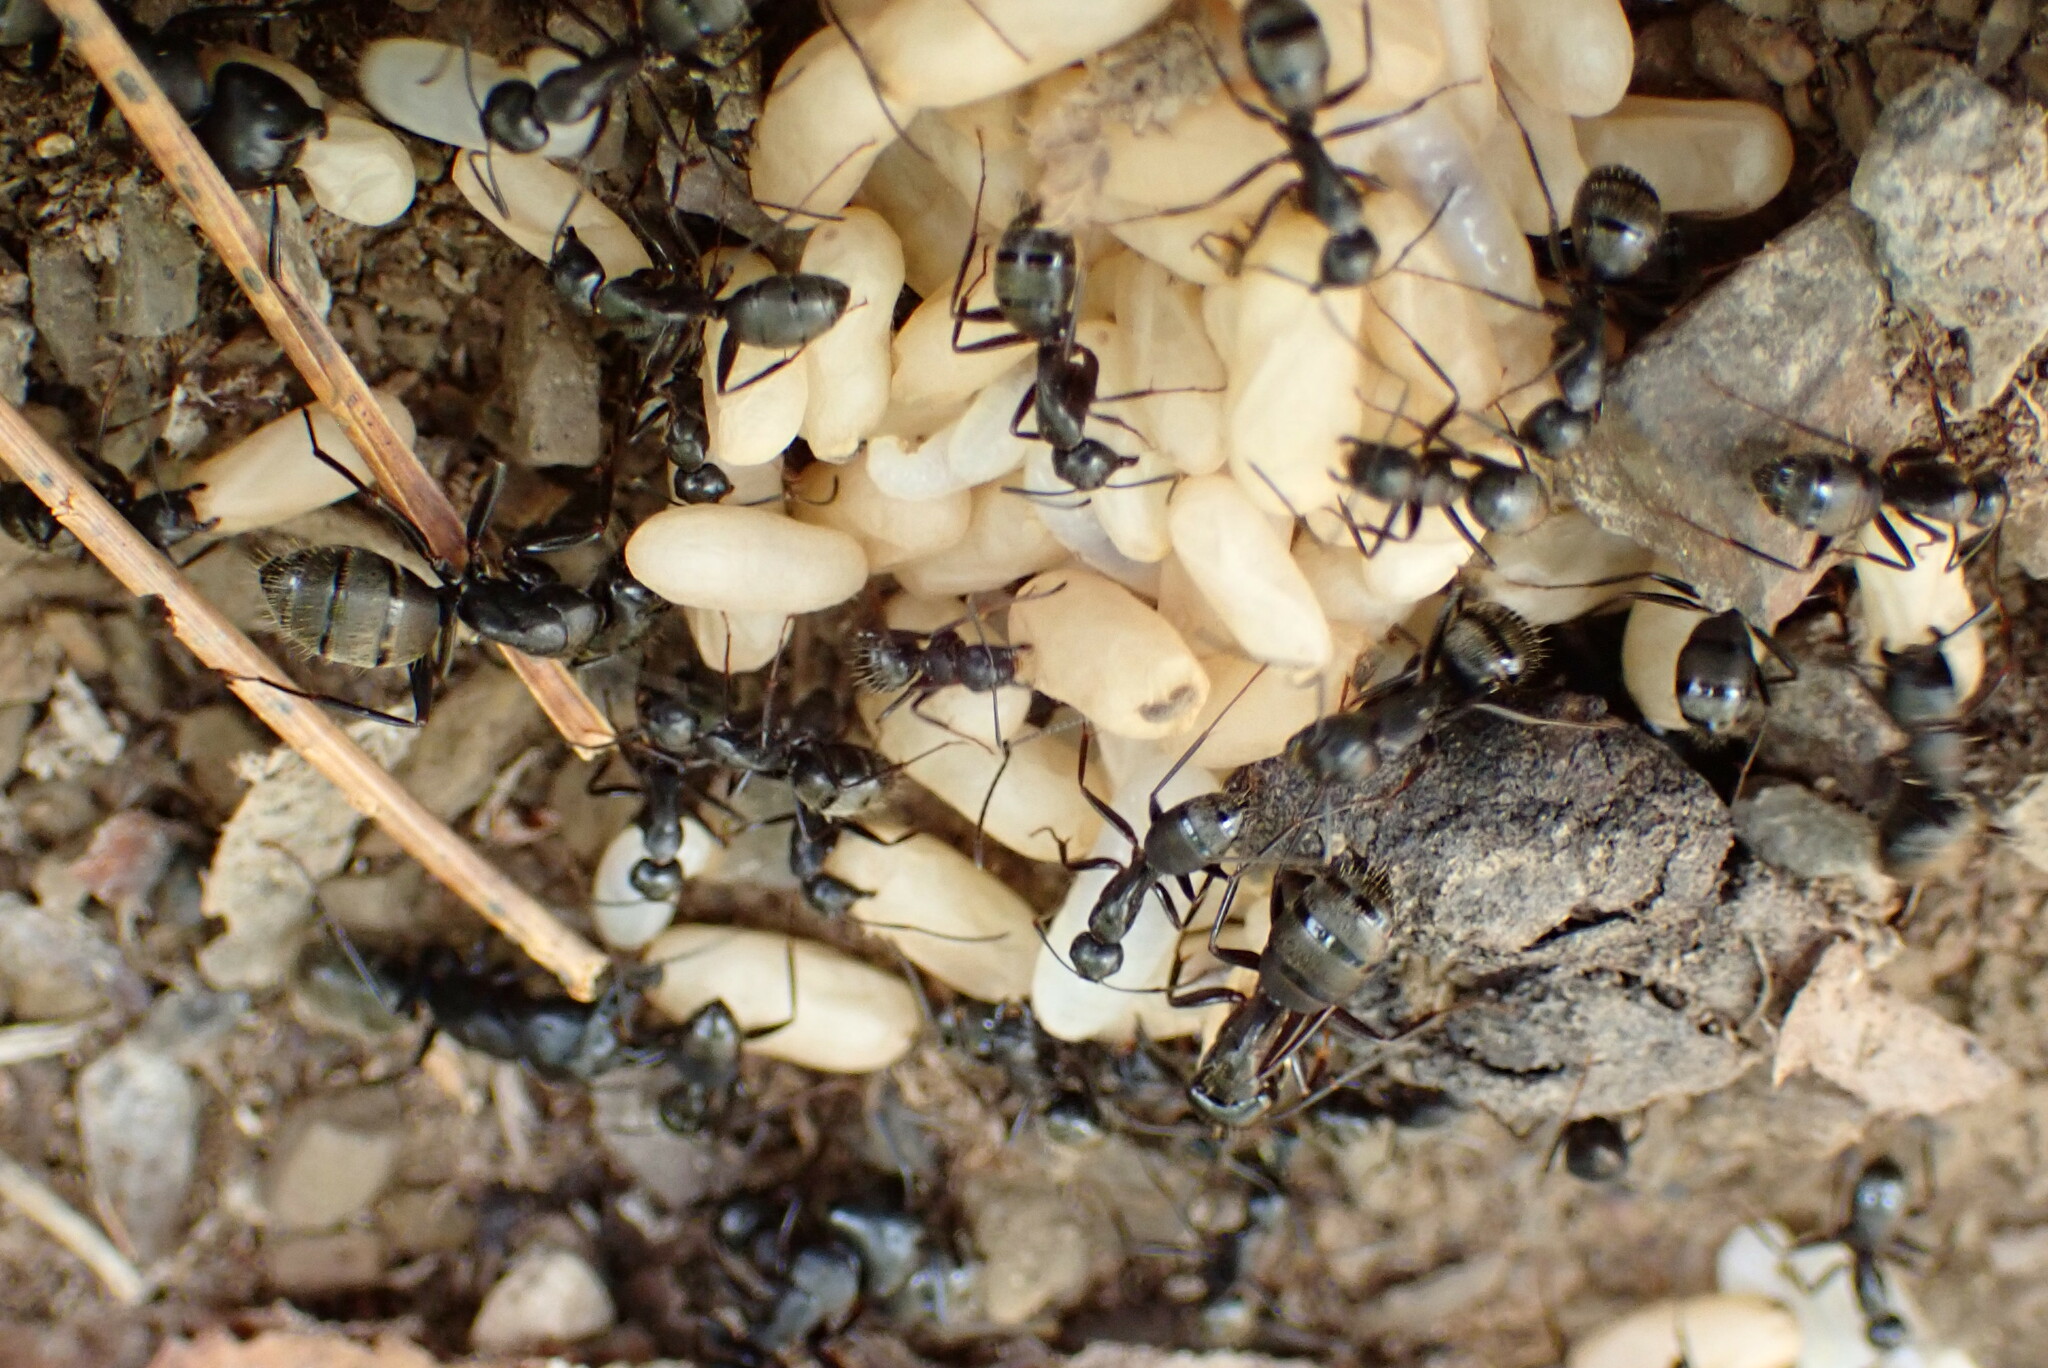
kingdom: Animalia
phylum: Arthropoda
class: Insecta
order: Hymenoptera
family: Formicidae
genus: Camponotus
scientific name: Camponotus pennsylvanicus
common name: Black carpenter ant
